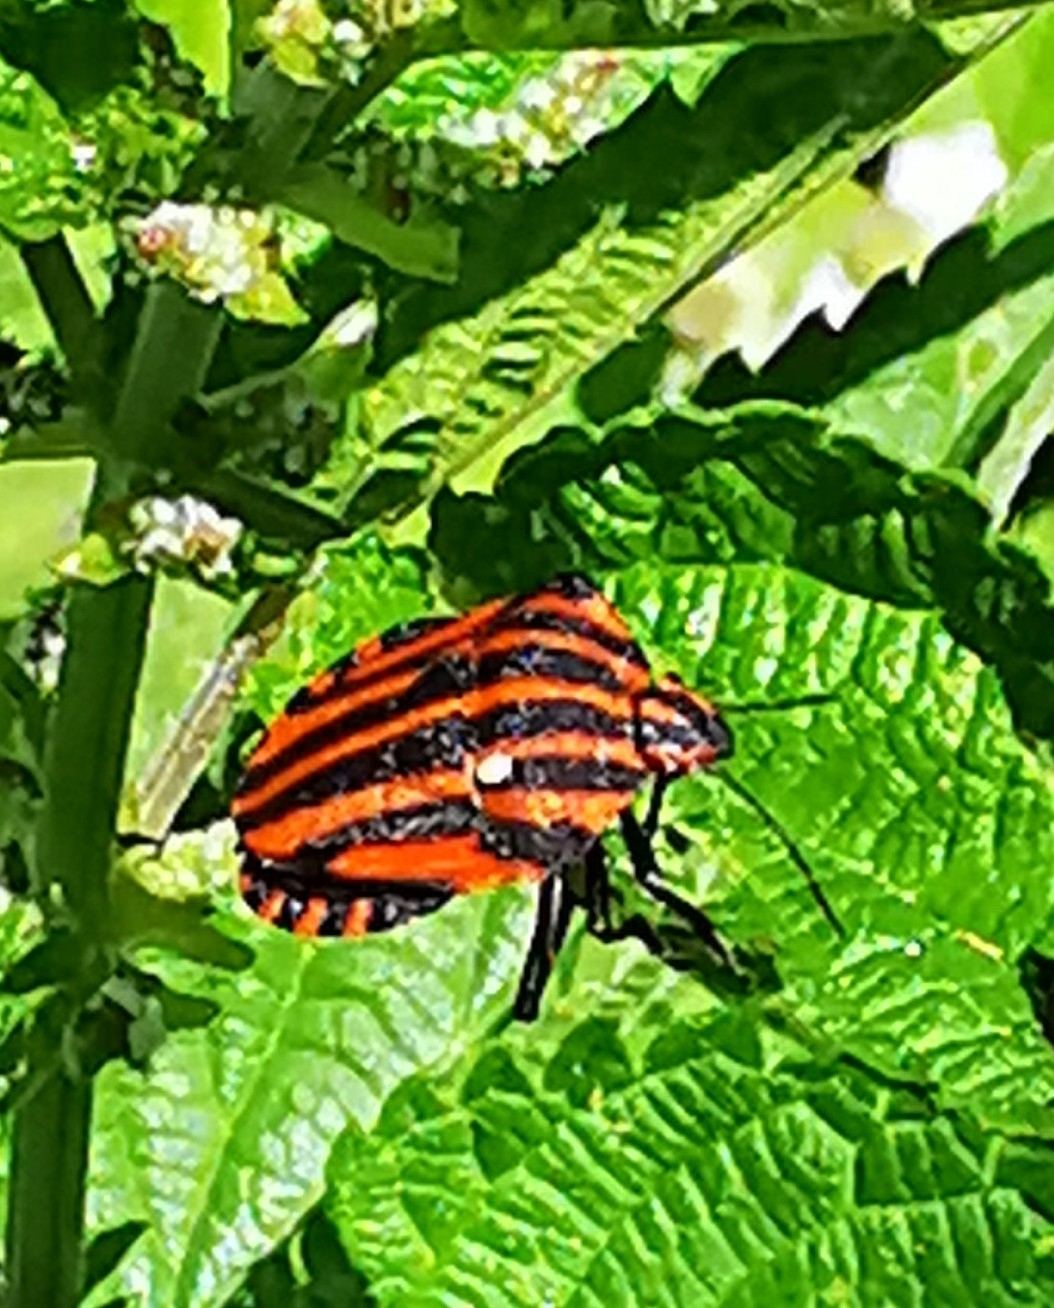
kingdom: Animalia
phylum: Arthropoda
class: Insecta
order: Hemiptera
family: Pentatomidae
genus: Graphosoma
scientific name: Graphosoma italicum
